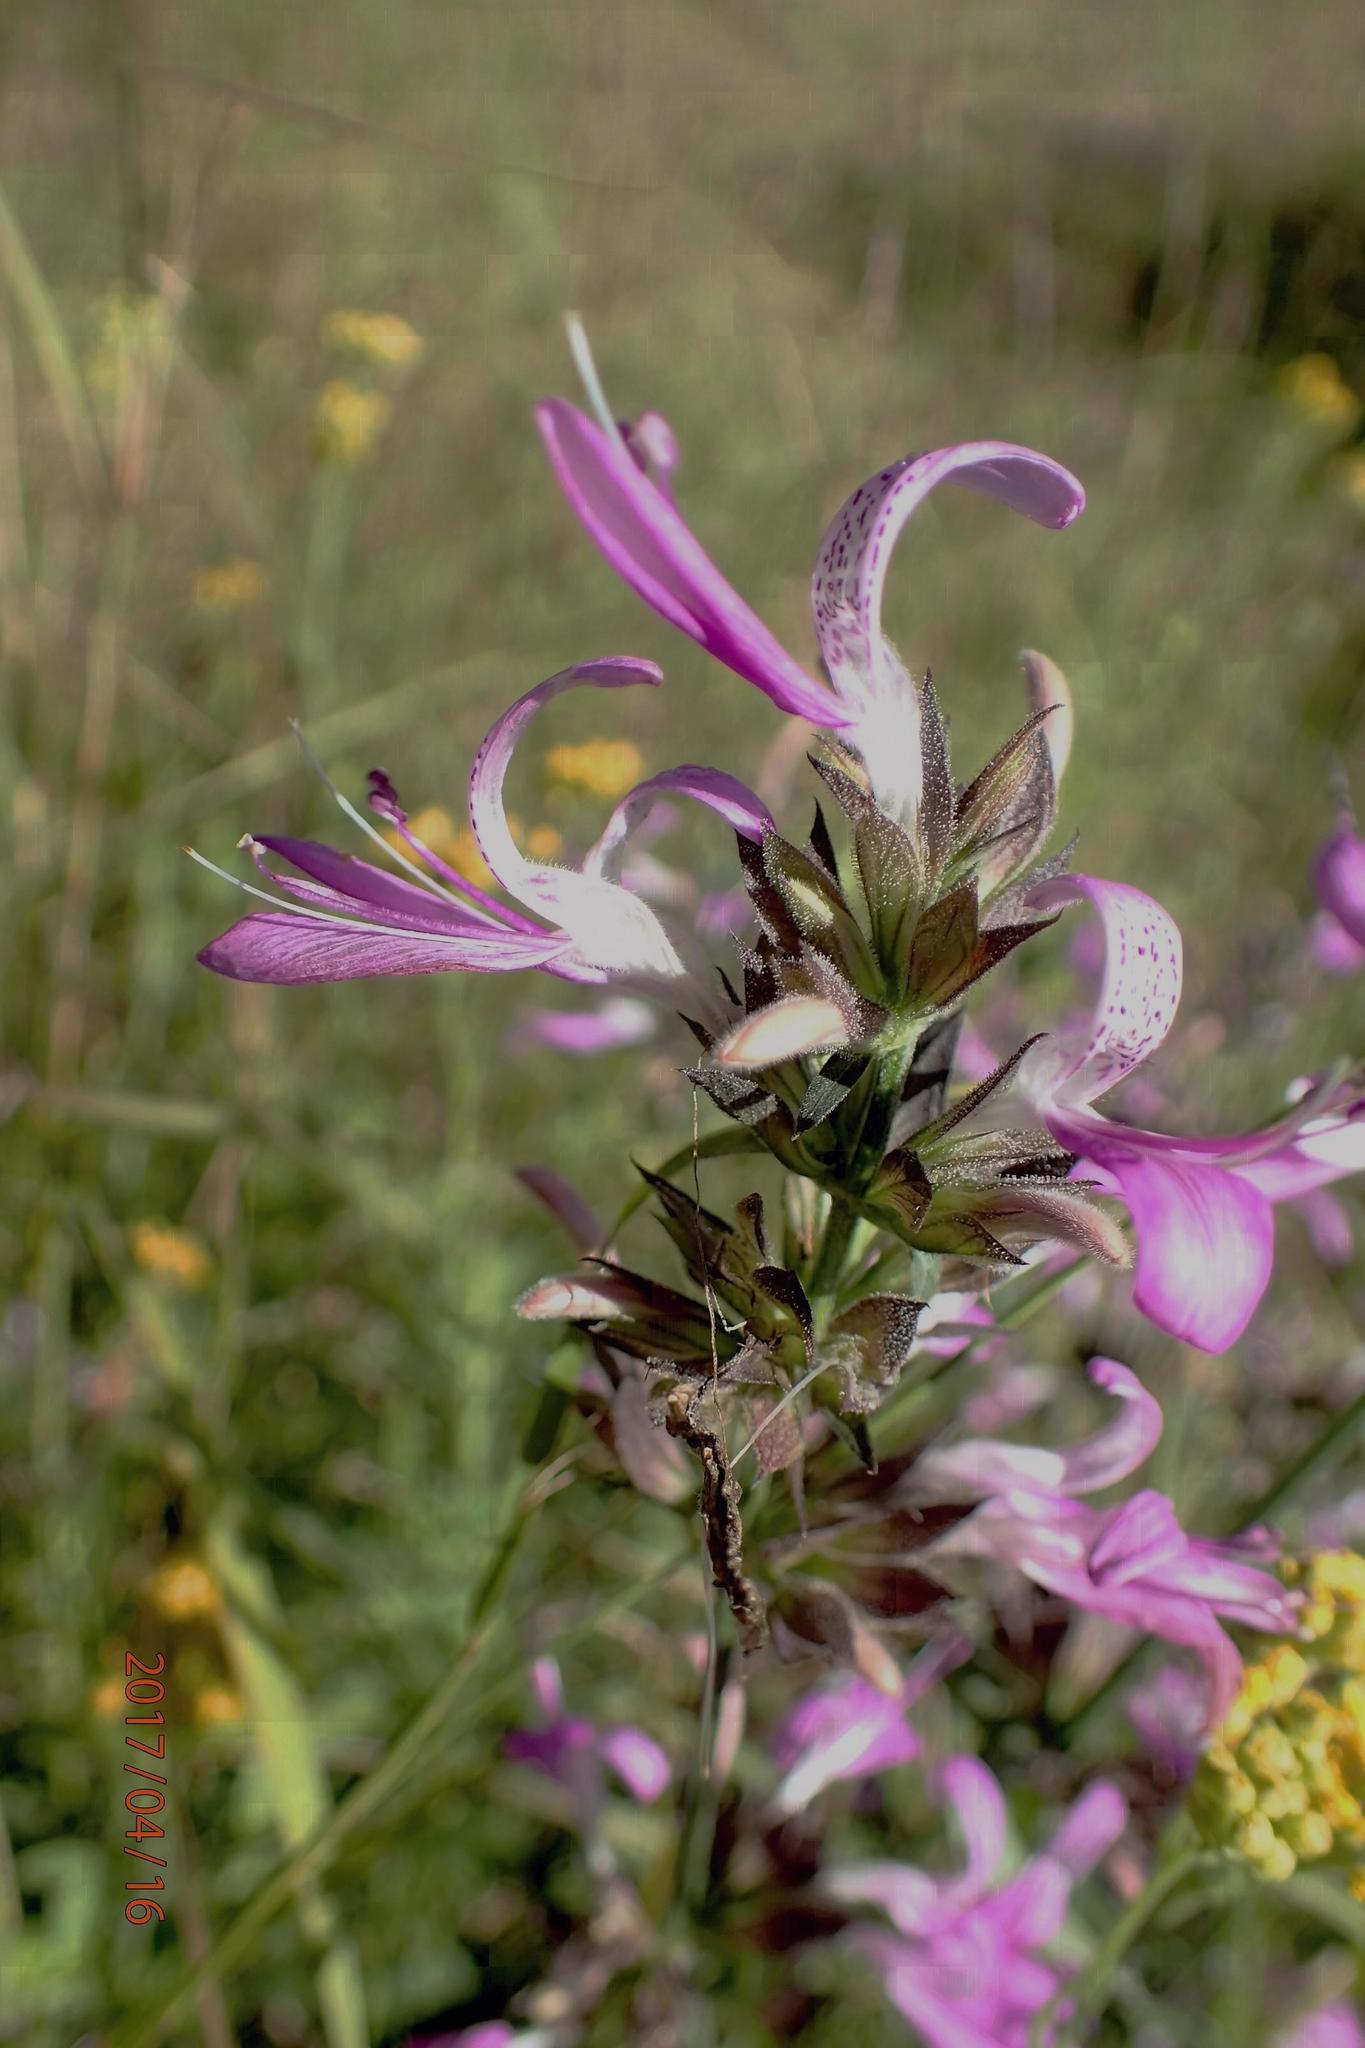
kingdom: Plantae
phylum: Tracheophyta
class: Magnoliopsida
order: Lamiales
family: Acanthaceae
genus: Dicliptera
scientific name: Dicliptera clinopodia
